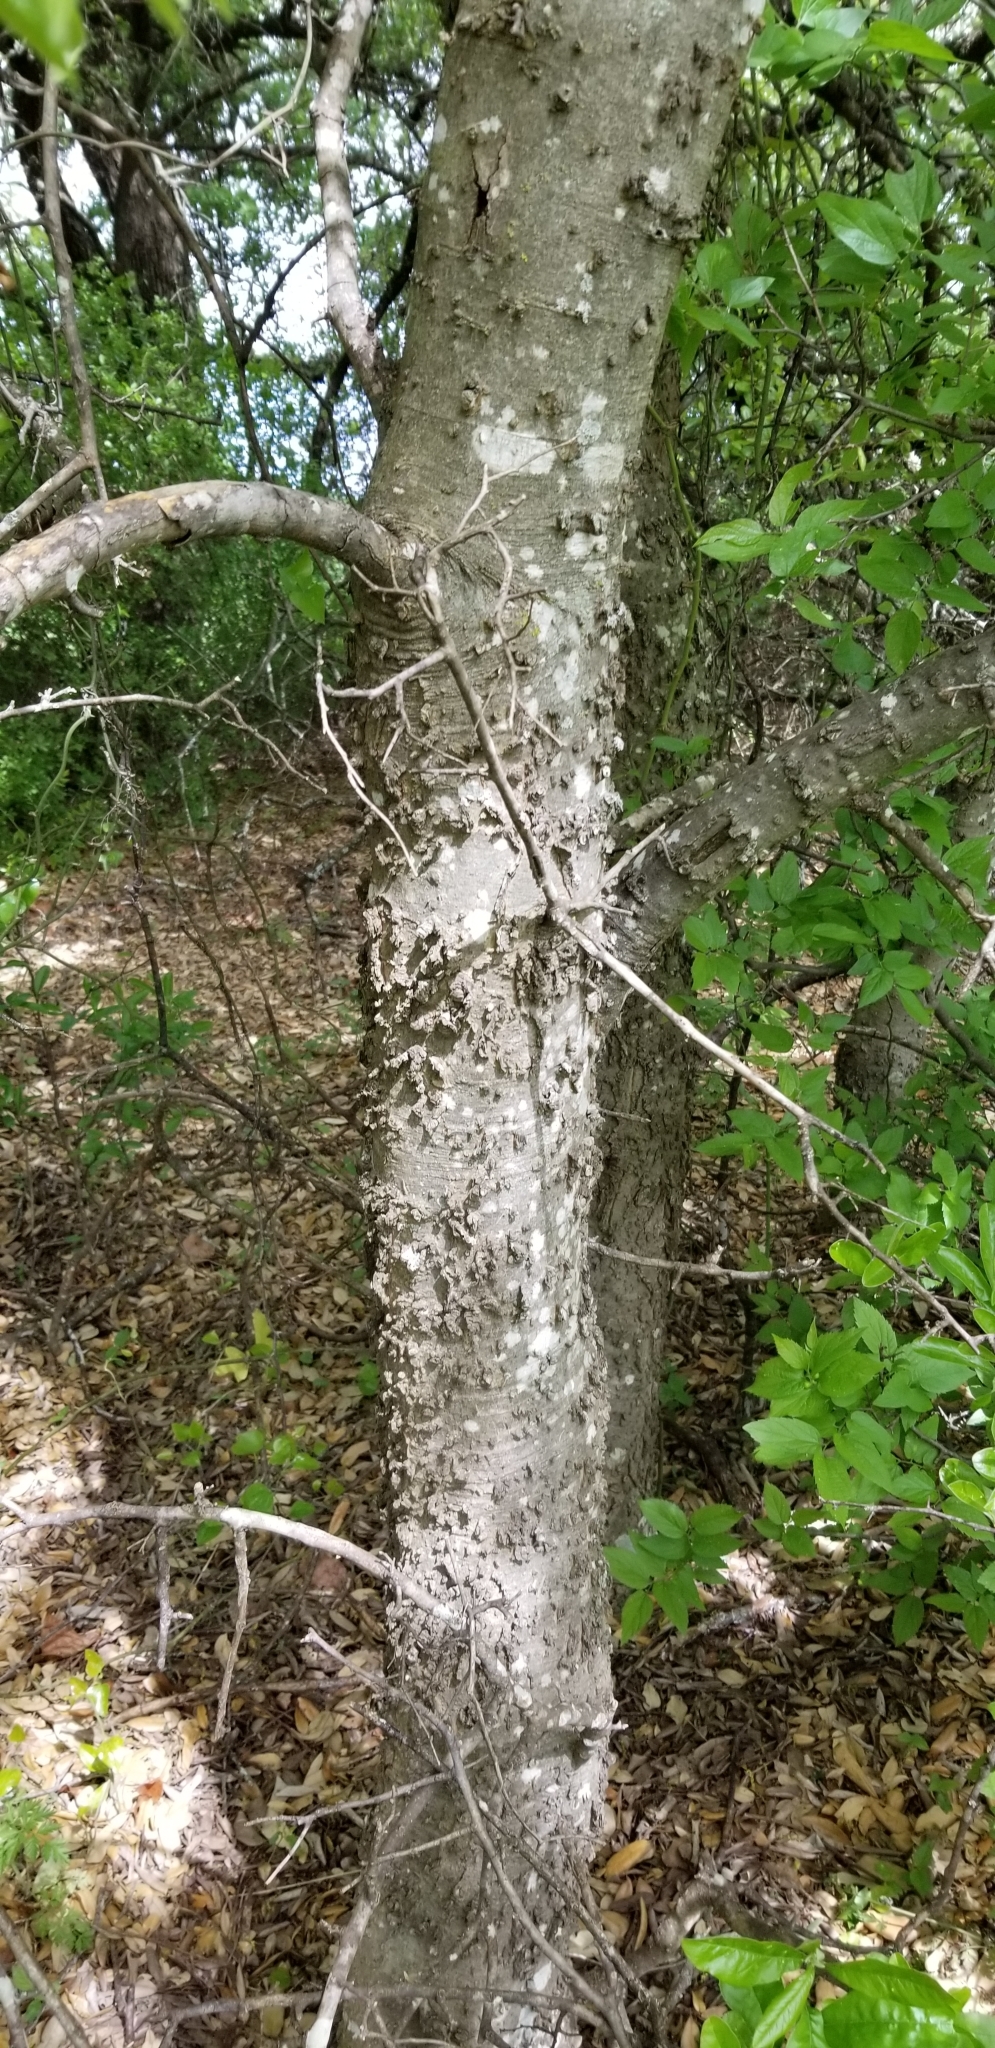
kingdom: Plantae
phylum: Tracheophyta
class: Magnoliopsida
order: Rosales
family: Cannabaceae
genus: Celtis
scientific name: Celtis laevigata
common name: Sugarberry
